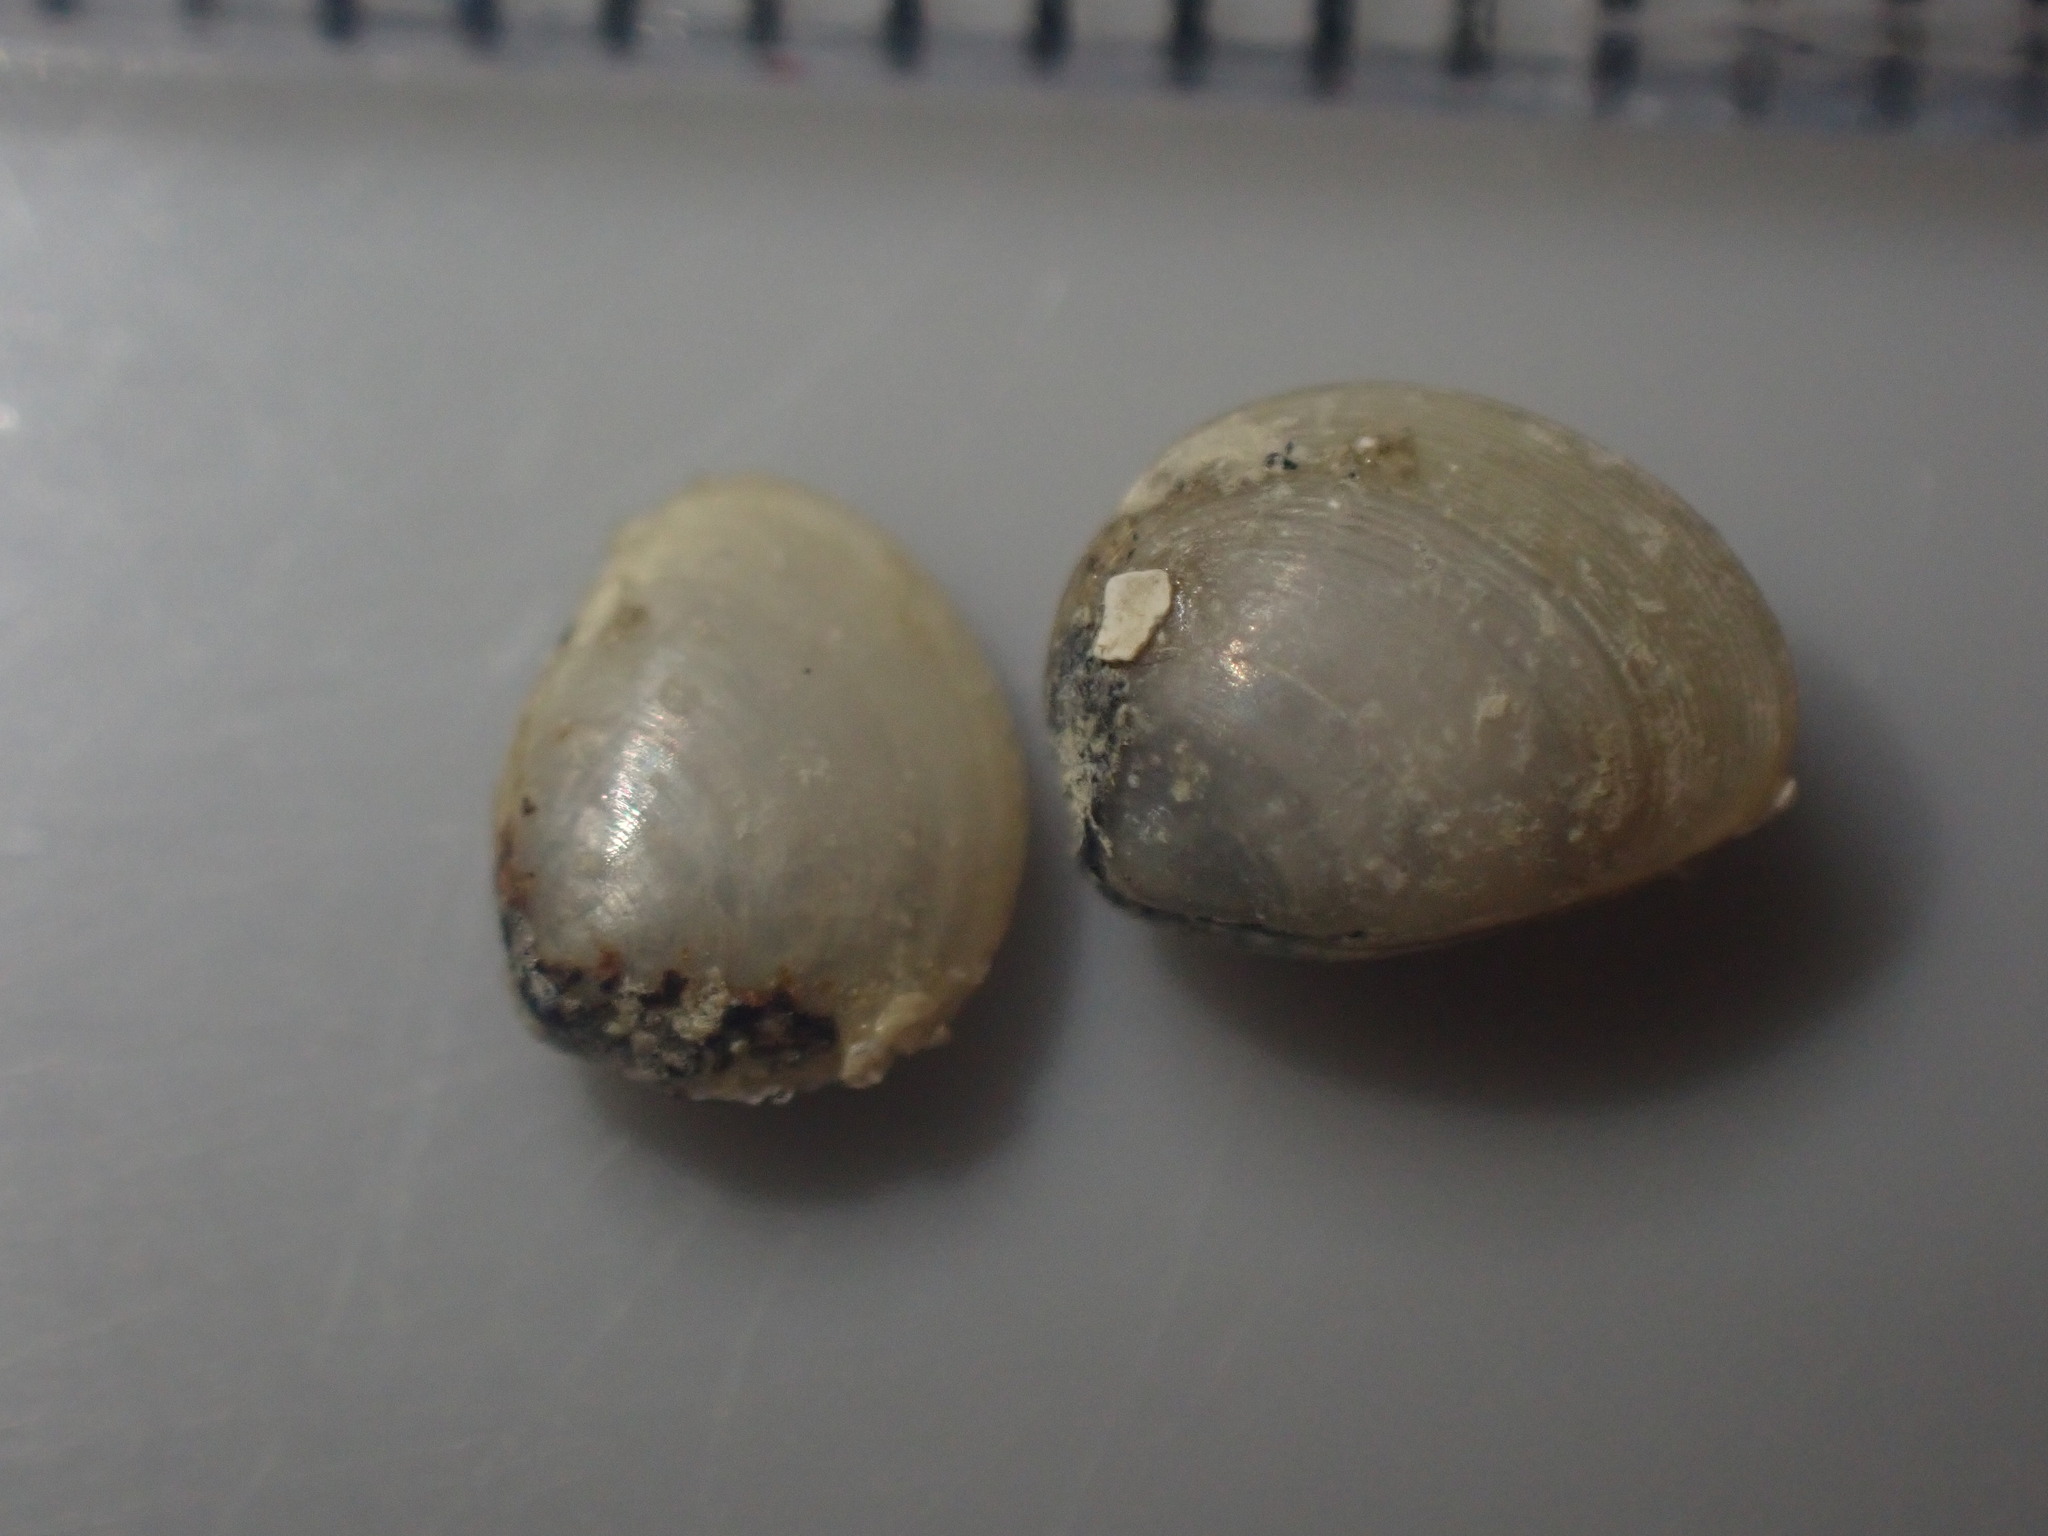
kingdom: Animalia
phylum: Mollusca
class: Bivalvia
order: Nuculida
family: Nuculidae
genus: Linucula
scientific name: Linucula hartvigiana
